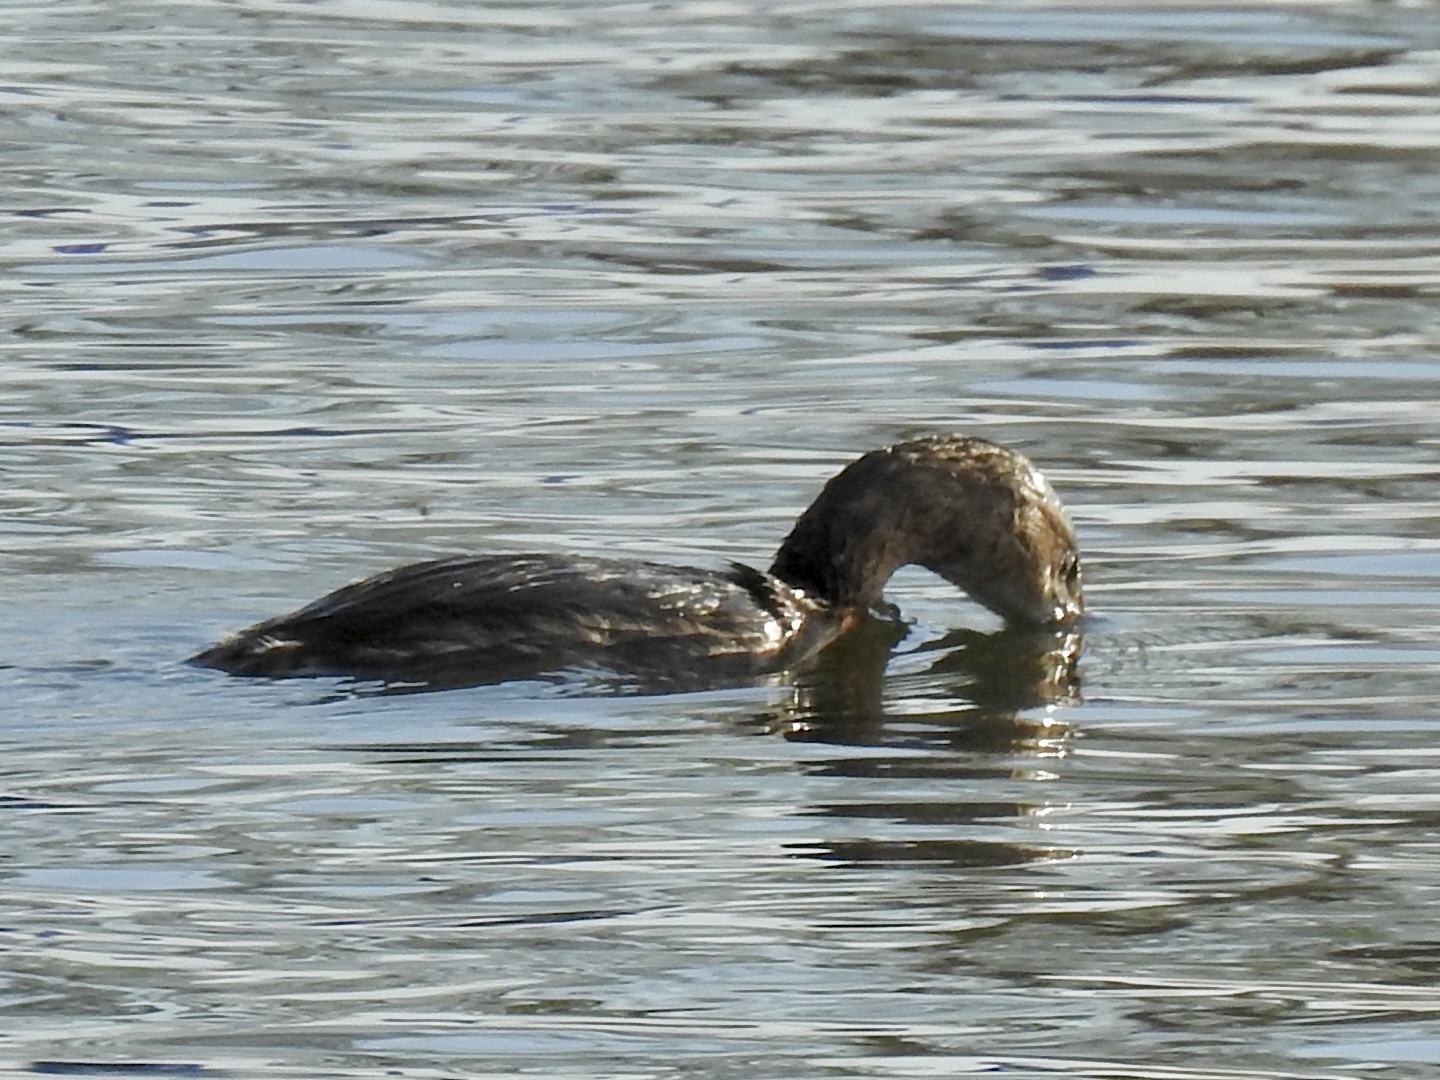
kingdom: Animalia
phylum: Chordata
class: Aves
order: Podicipediformes
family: Podicipedidae
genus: Podilymbus
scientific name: Podilymbus podiceps
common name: Pied-billed grebe
